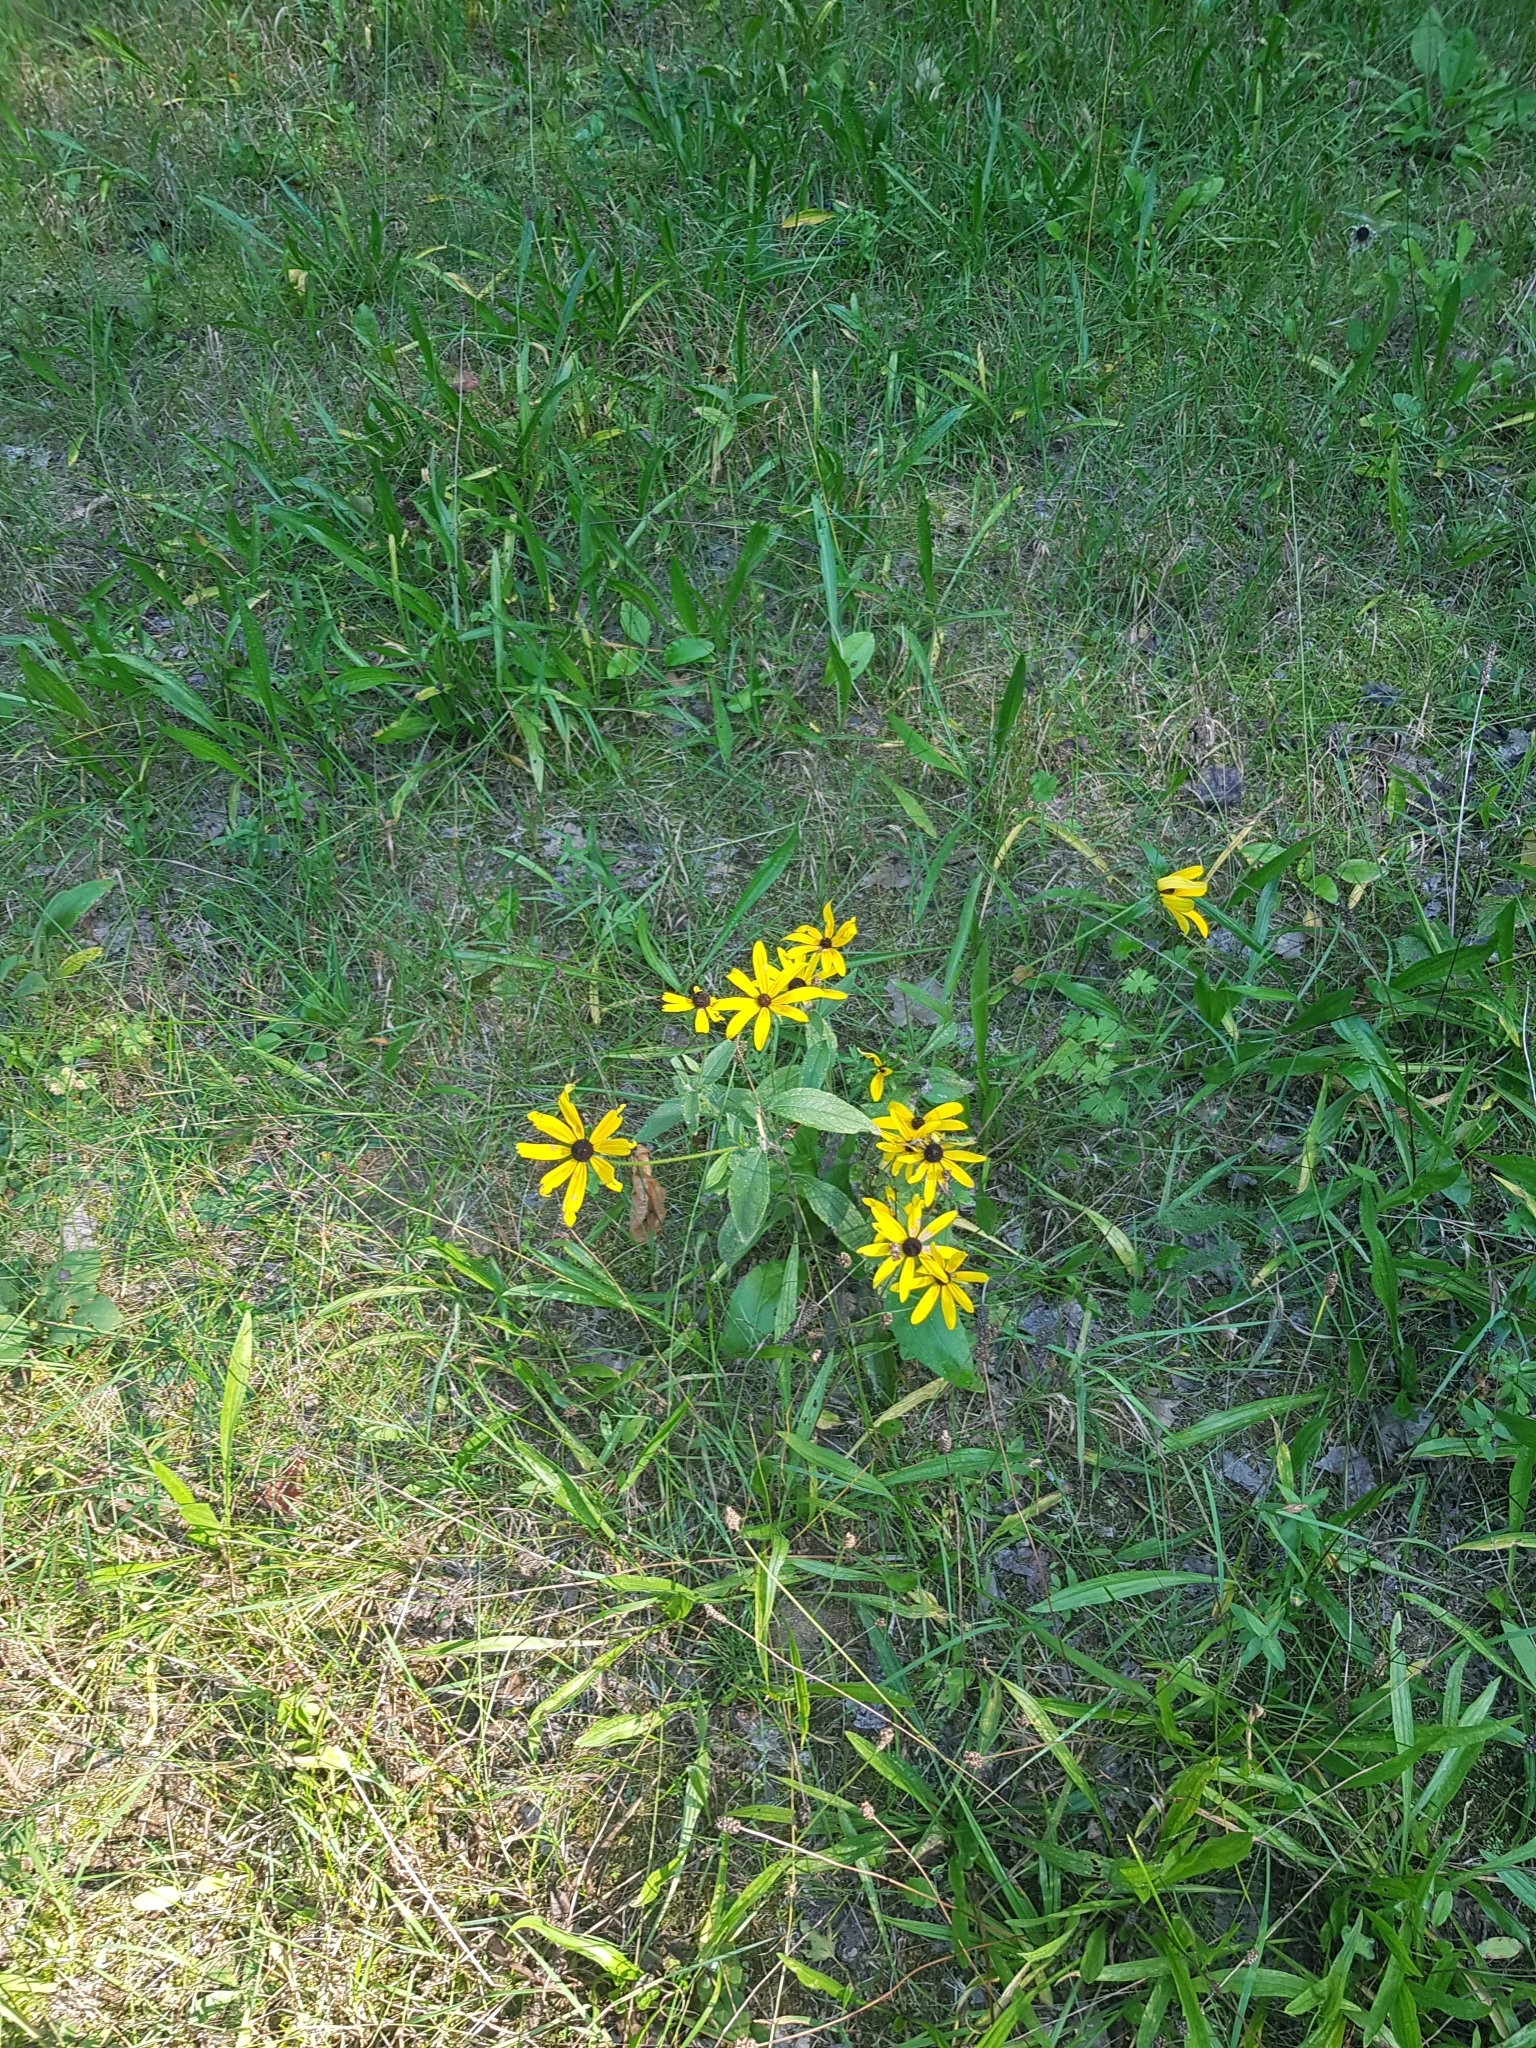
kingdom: Plantae
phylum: Tracheophyta
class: Magnoliopsida
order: Asterales
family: Asteraceae
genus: Rudbeckia
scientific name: Rudbeckia hirta
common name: Black-eyed-susan
